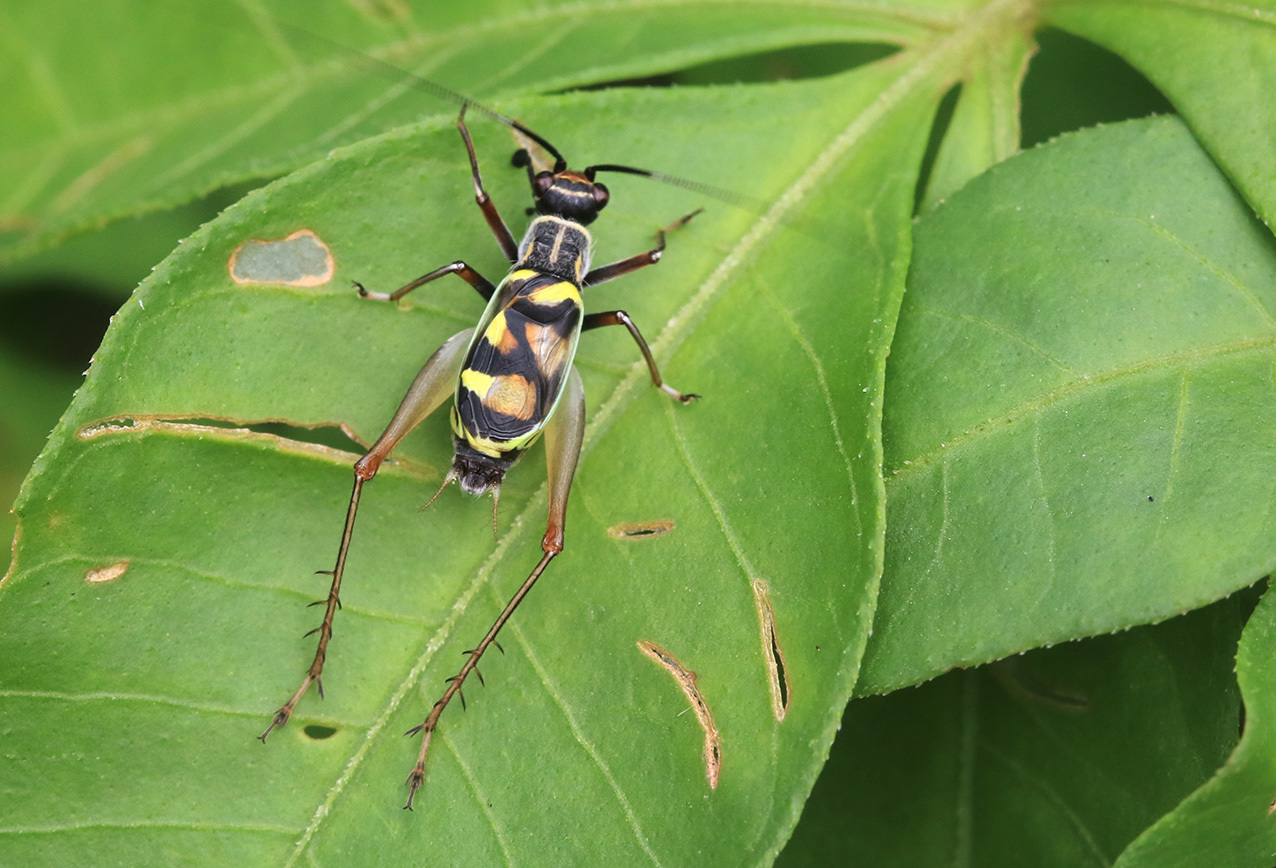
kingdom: Animalia
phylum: Arthropoda
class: Insecta
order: Orthoptera
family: Trigonidiidae
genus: Phylloscyrtus
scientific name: Phylloscyrtus amoenus
